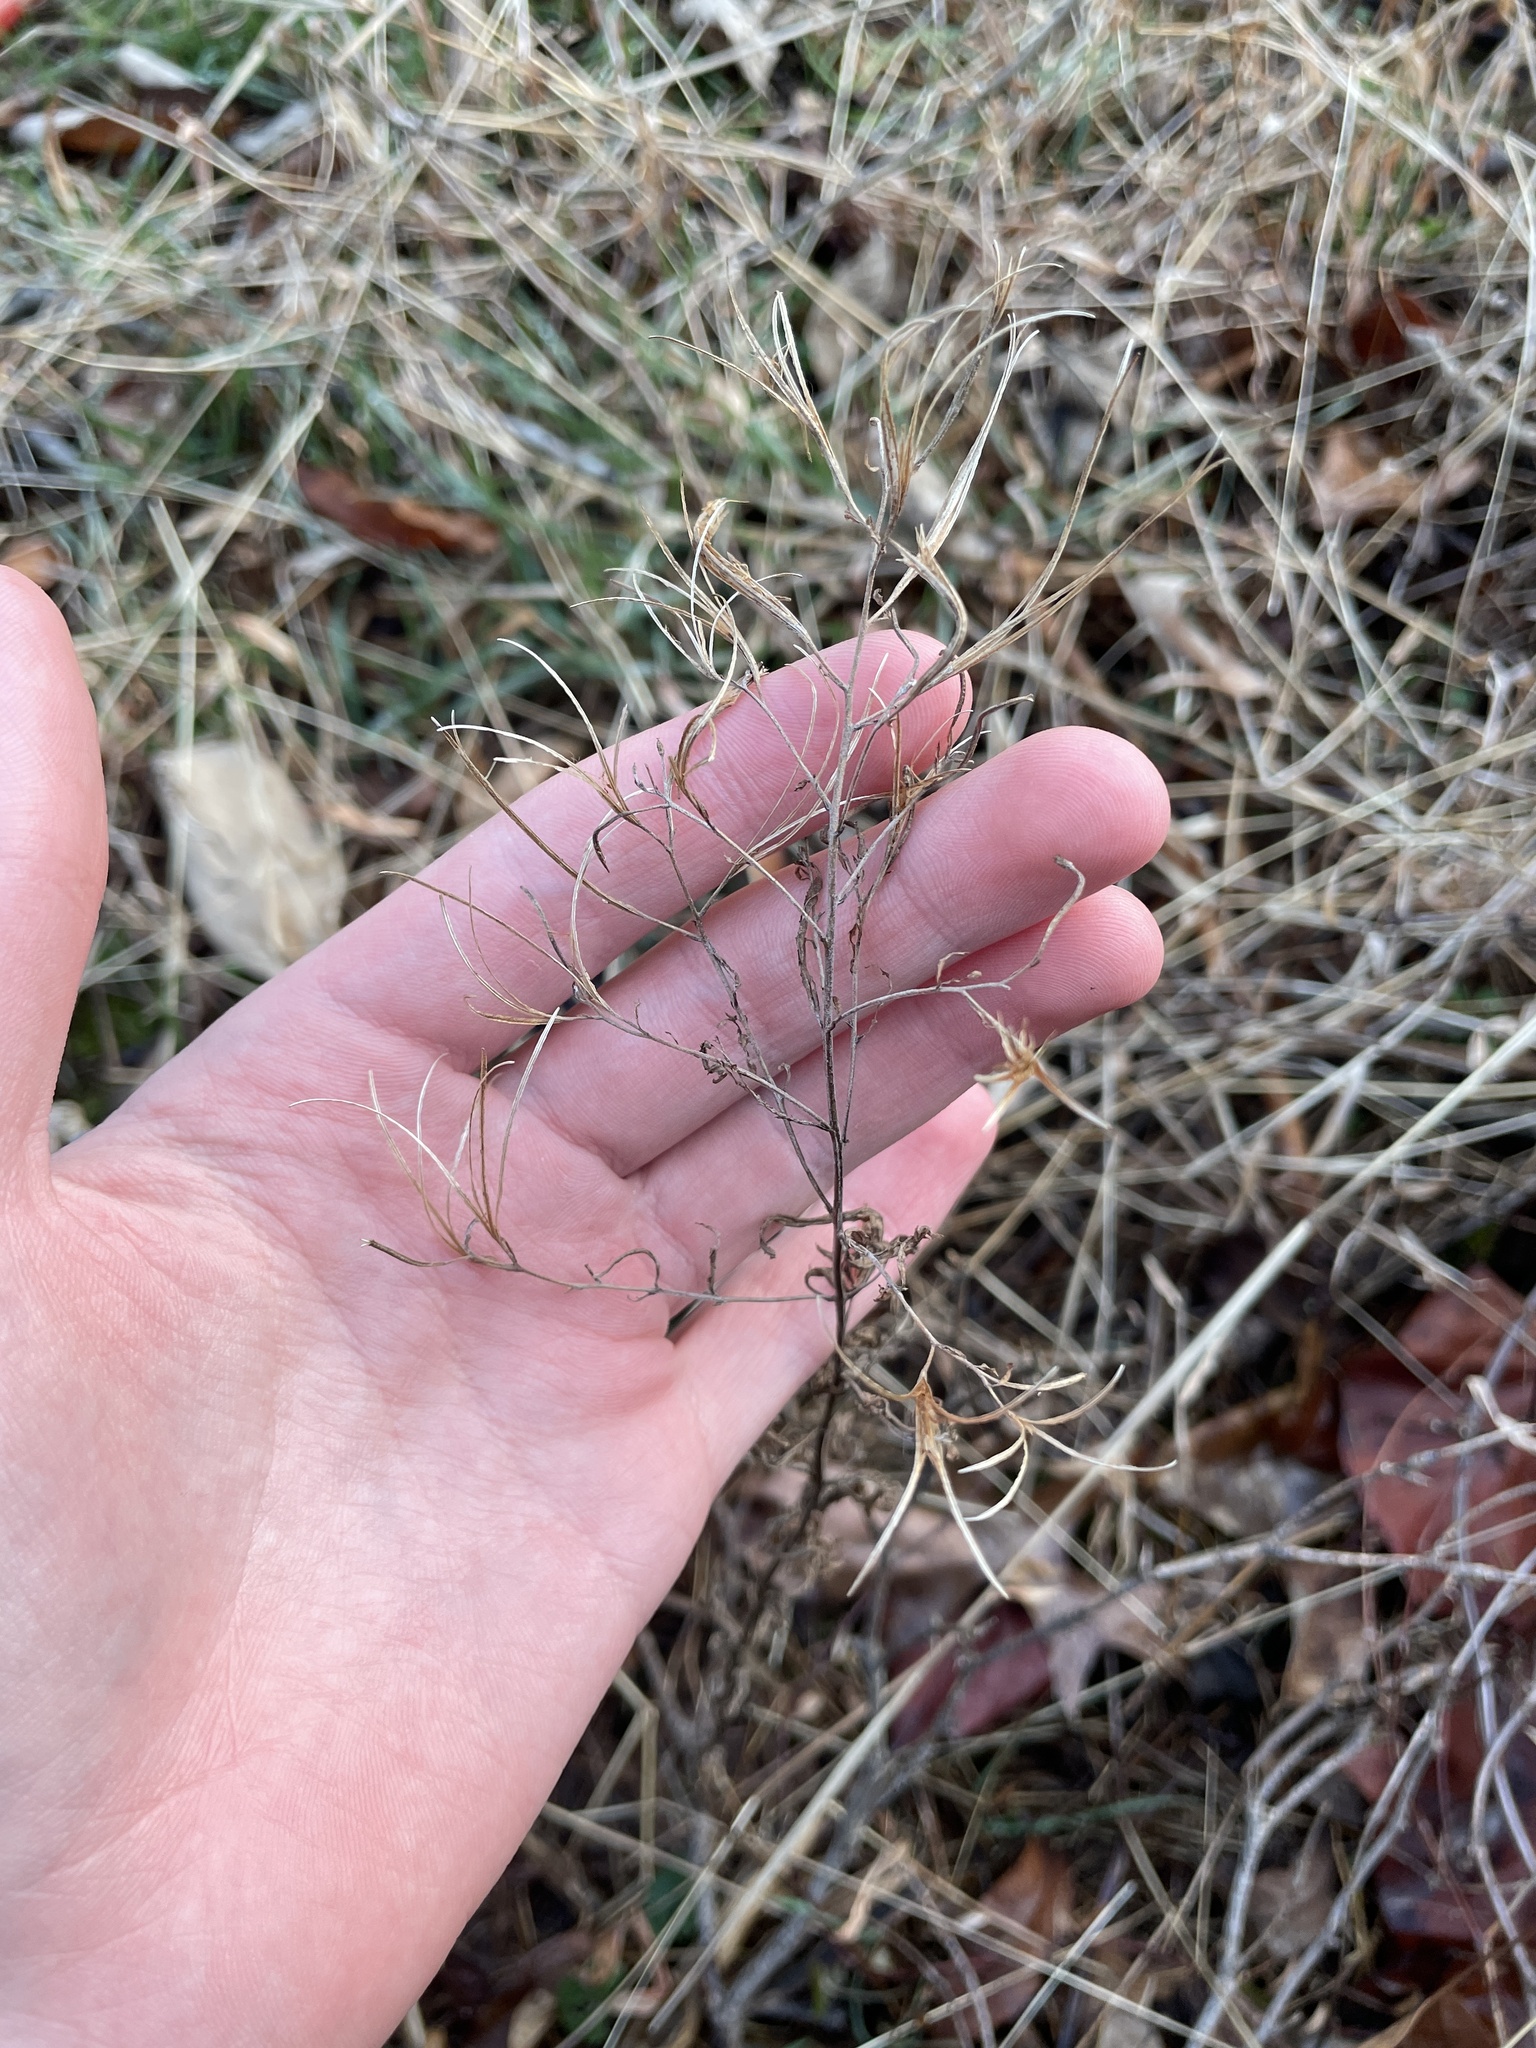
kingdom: Plantae
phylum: Tracheophyta
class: Magnoliopsida
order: Myrtales
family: Onagraceae
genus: Epilobium
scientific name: Epilobium coloratum
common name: Bronze willowherb
